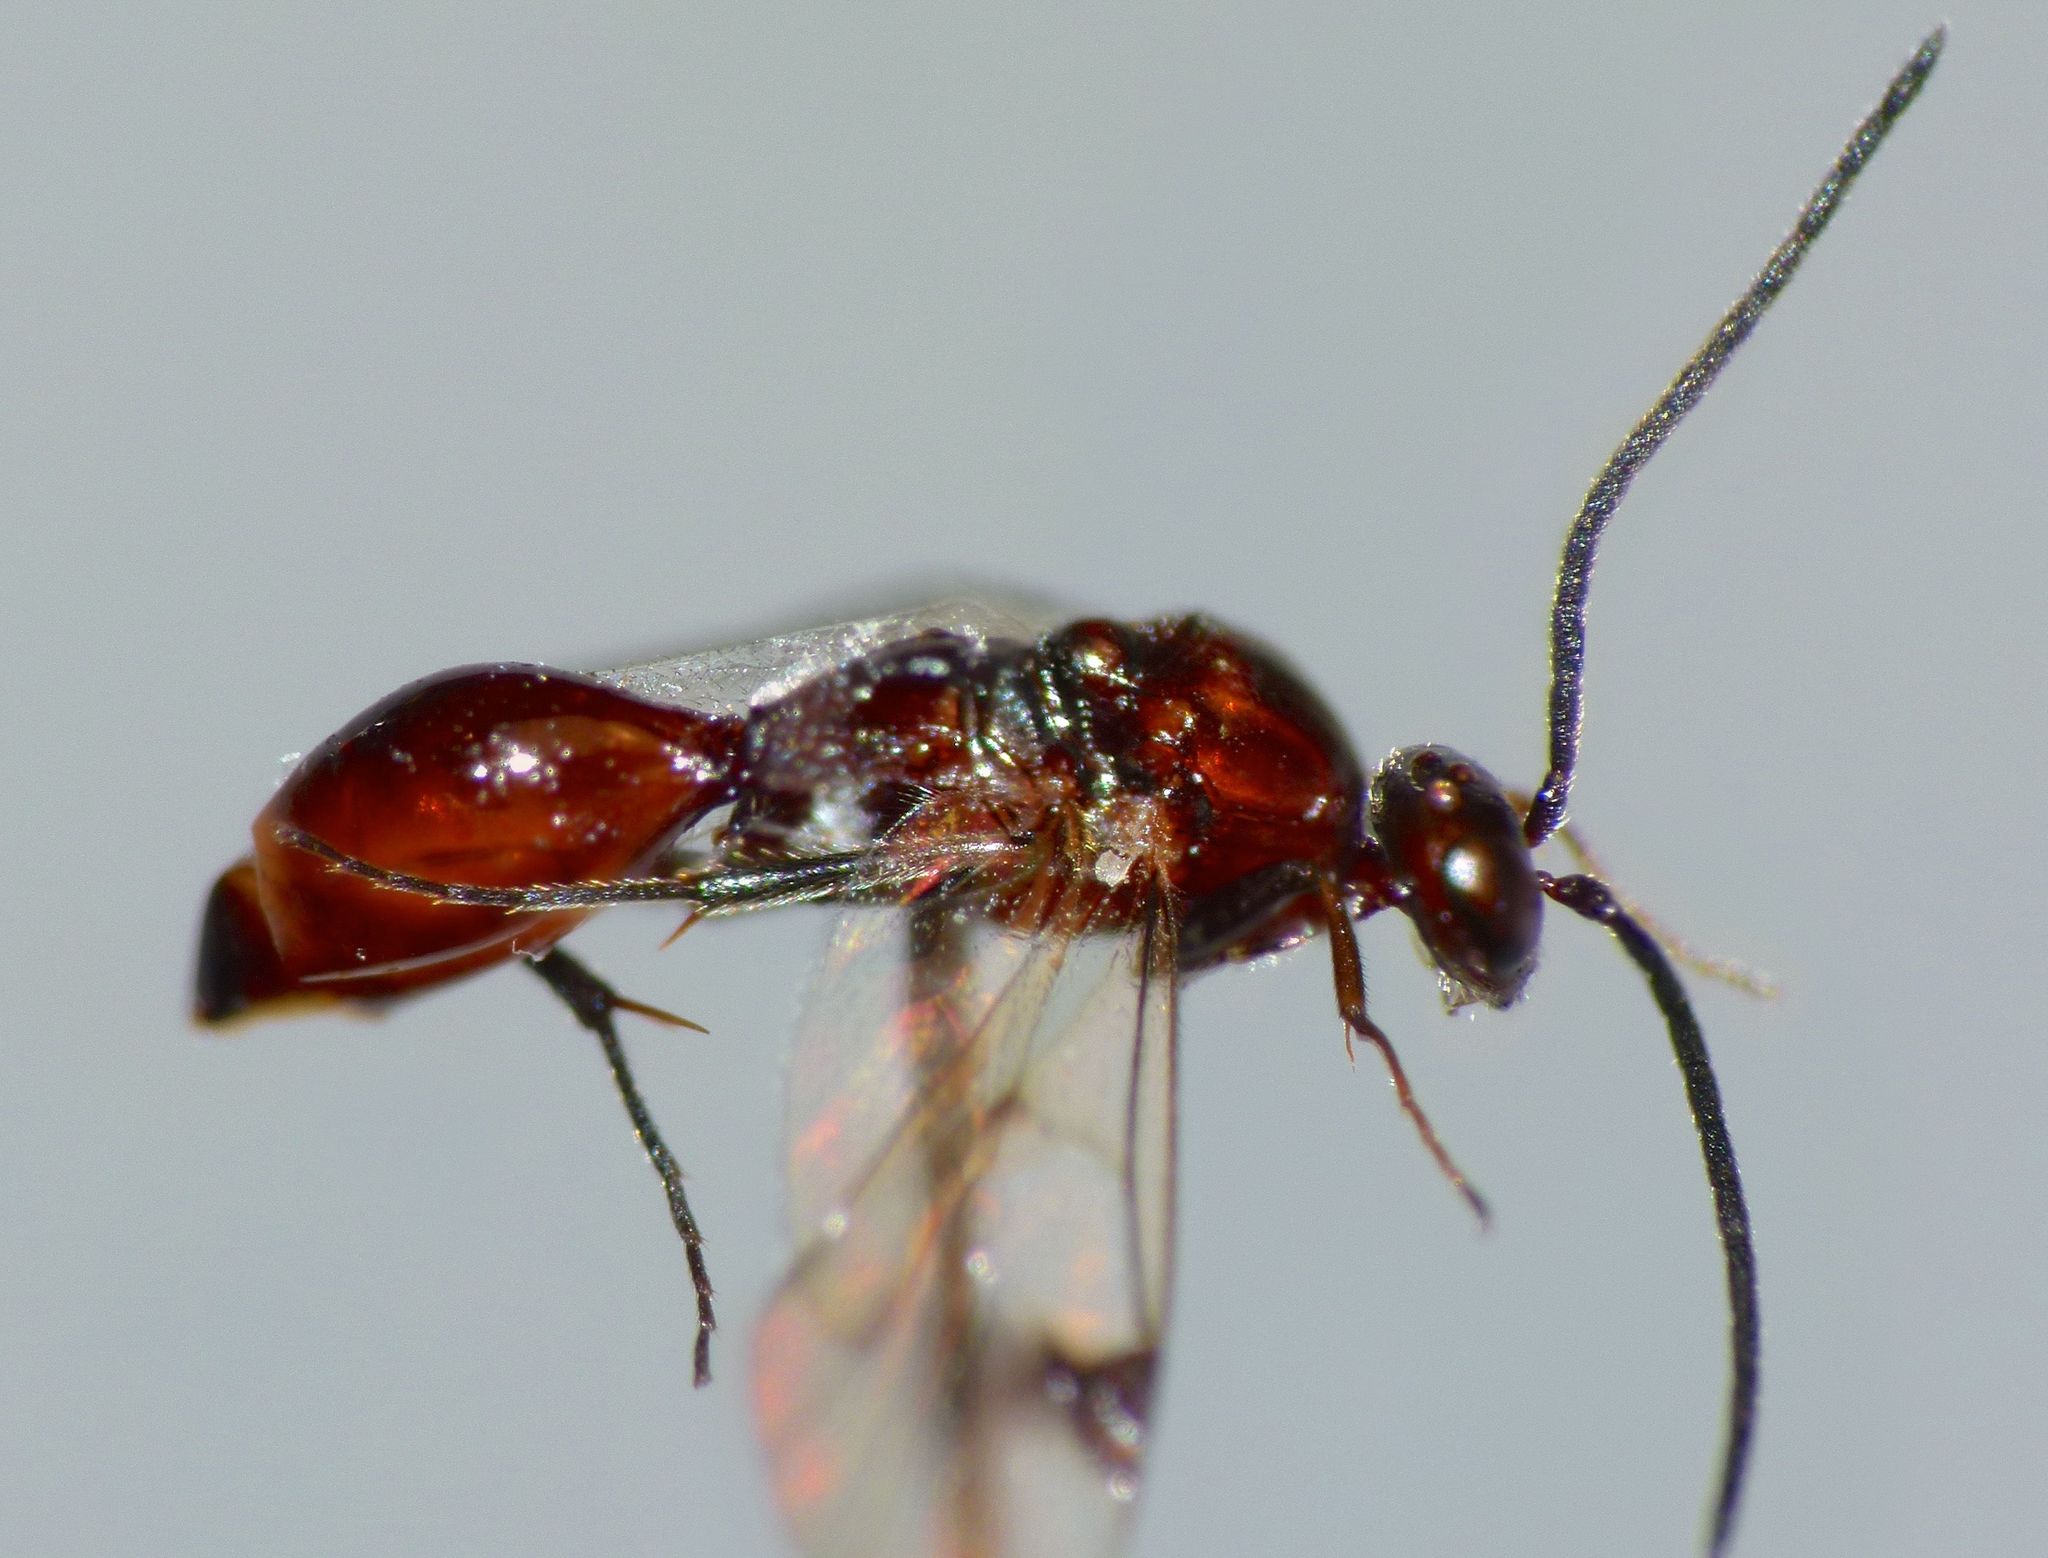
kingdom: Animalia
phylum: Arthropoda
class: Insecta
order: Hymenoptera
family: Proctotrupidae
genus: Fustiserphus
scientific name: Fustiserphus
